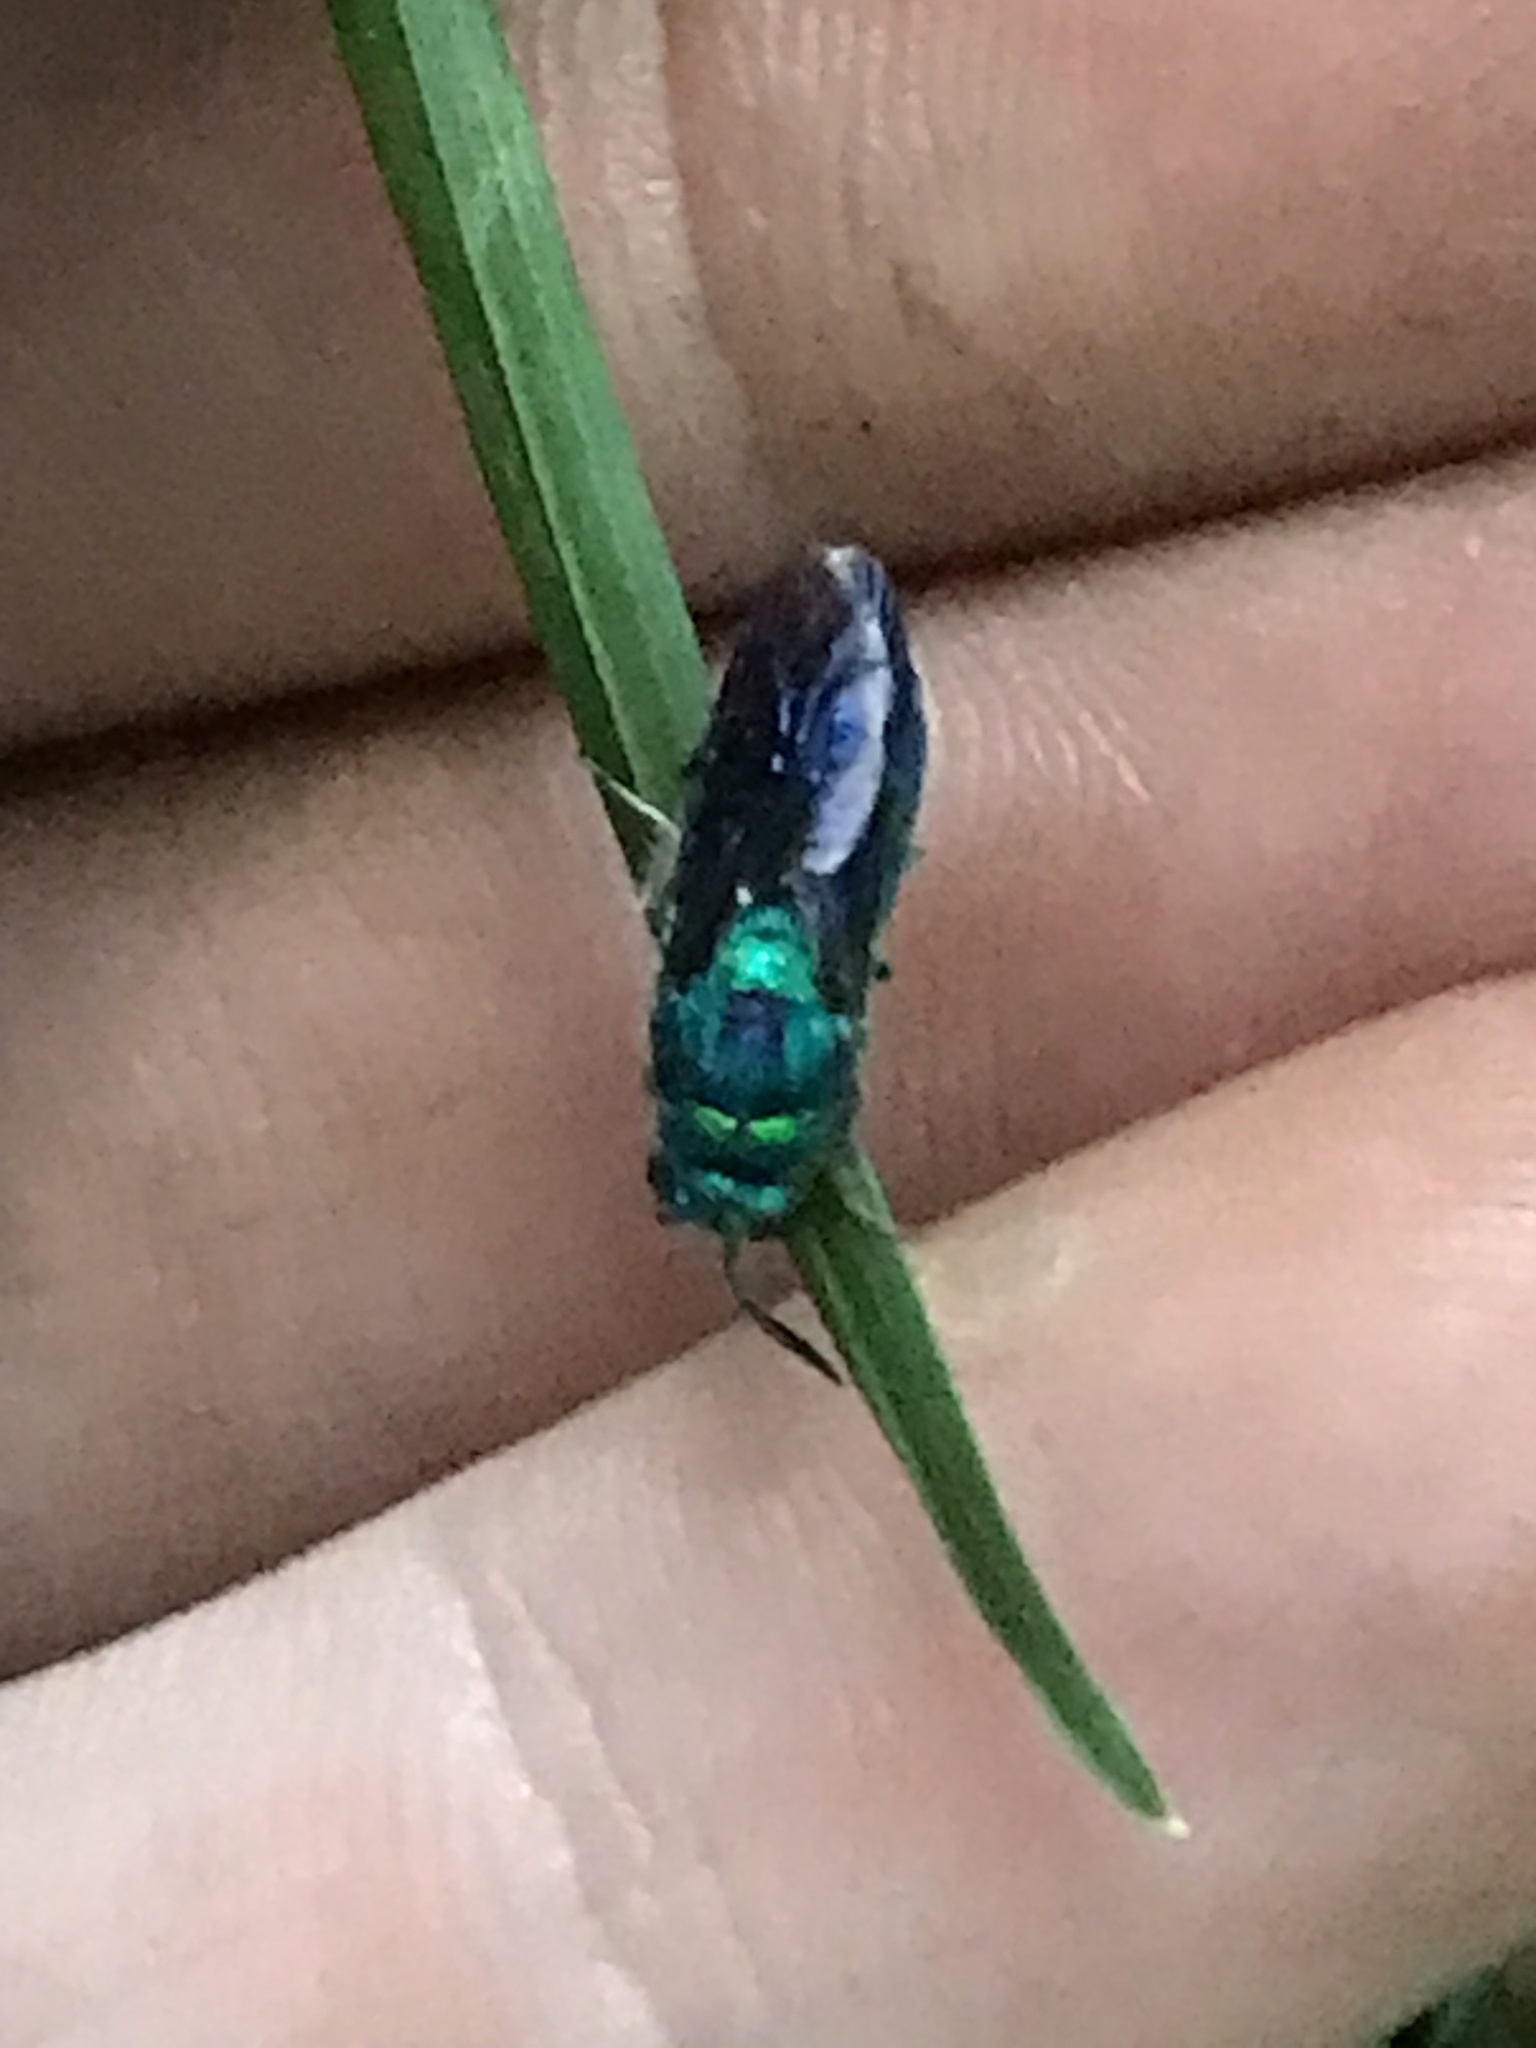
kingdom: Animalia
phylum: Arthropoda
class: Insecta
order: Hymenoptera
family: Chrysididae
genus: Chrysis
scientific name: Chrysis angolensis
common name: Cuckoo wasp
